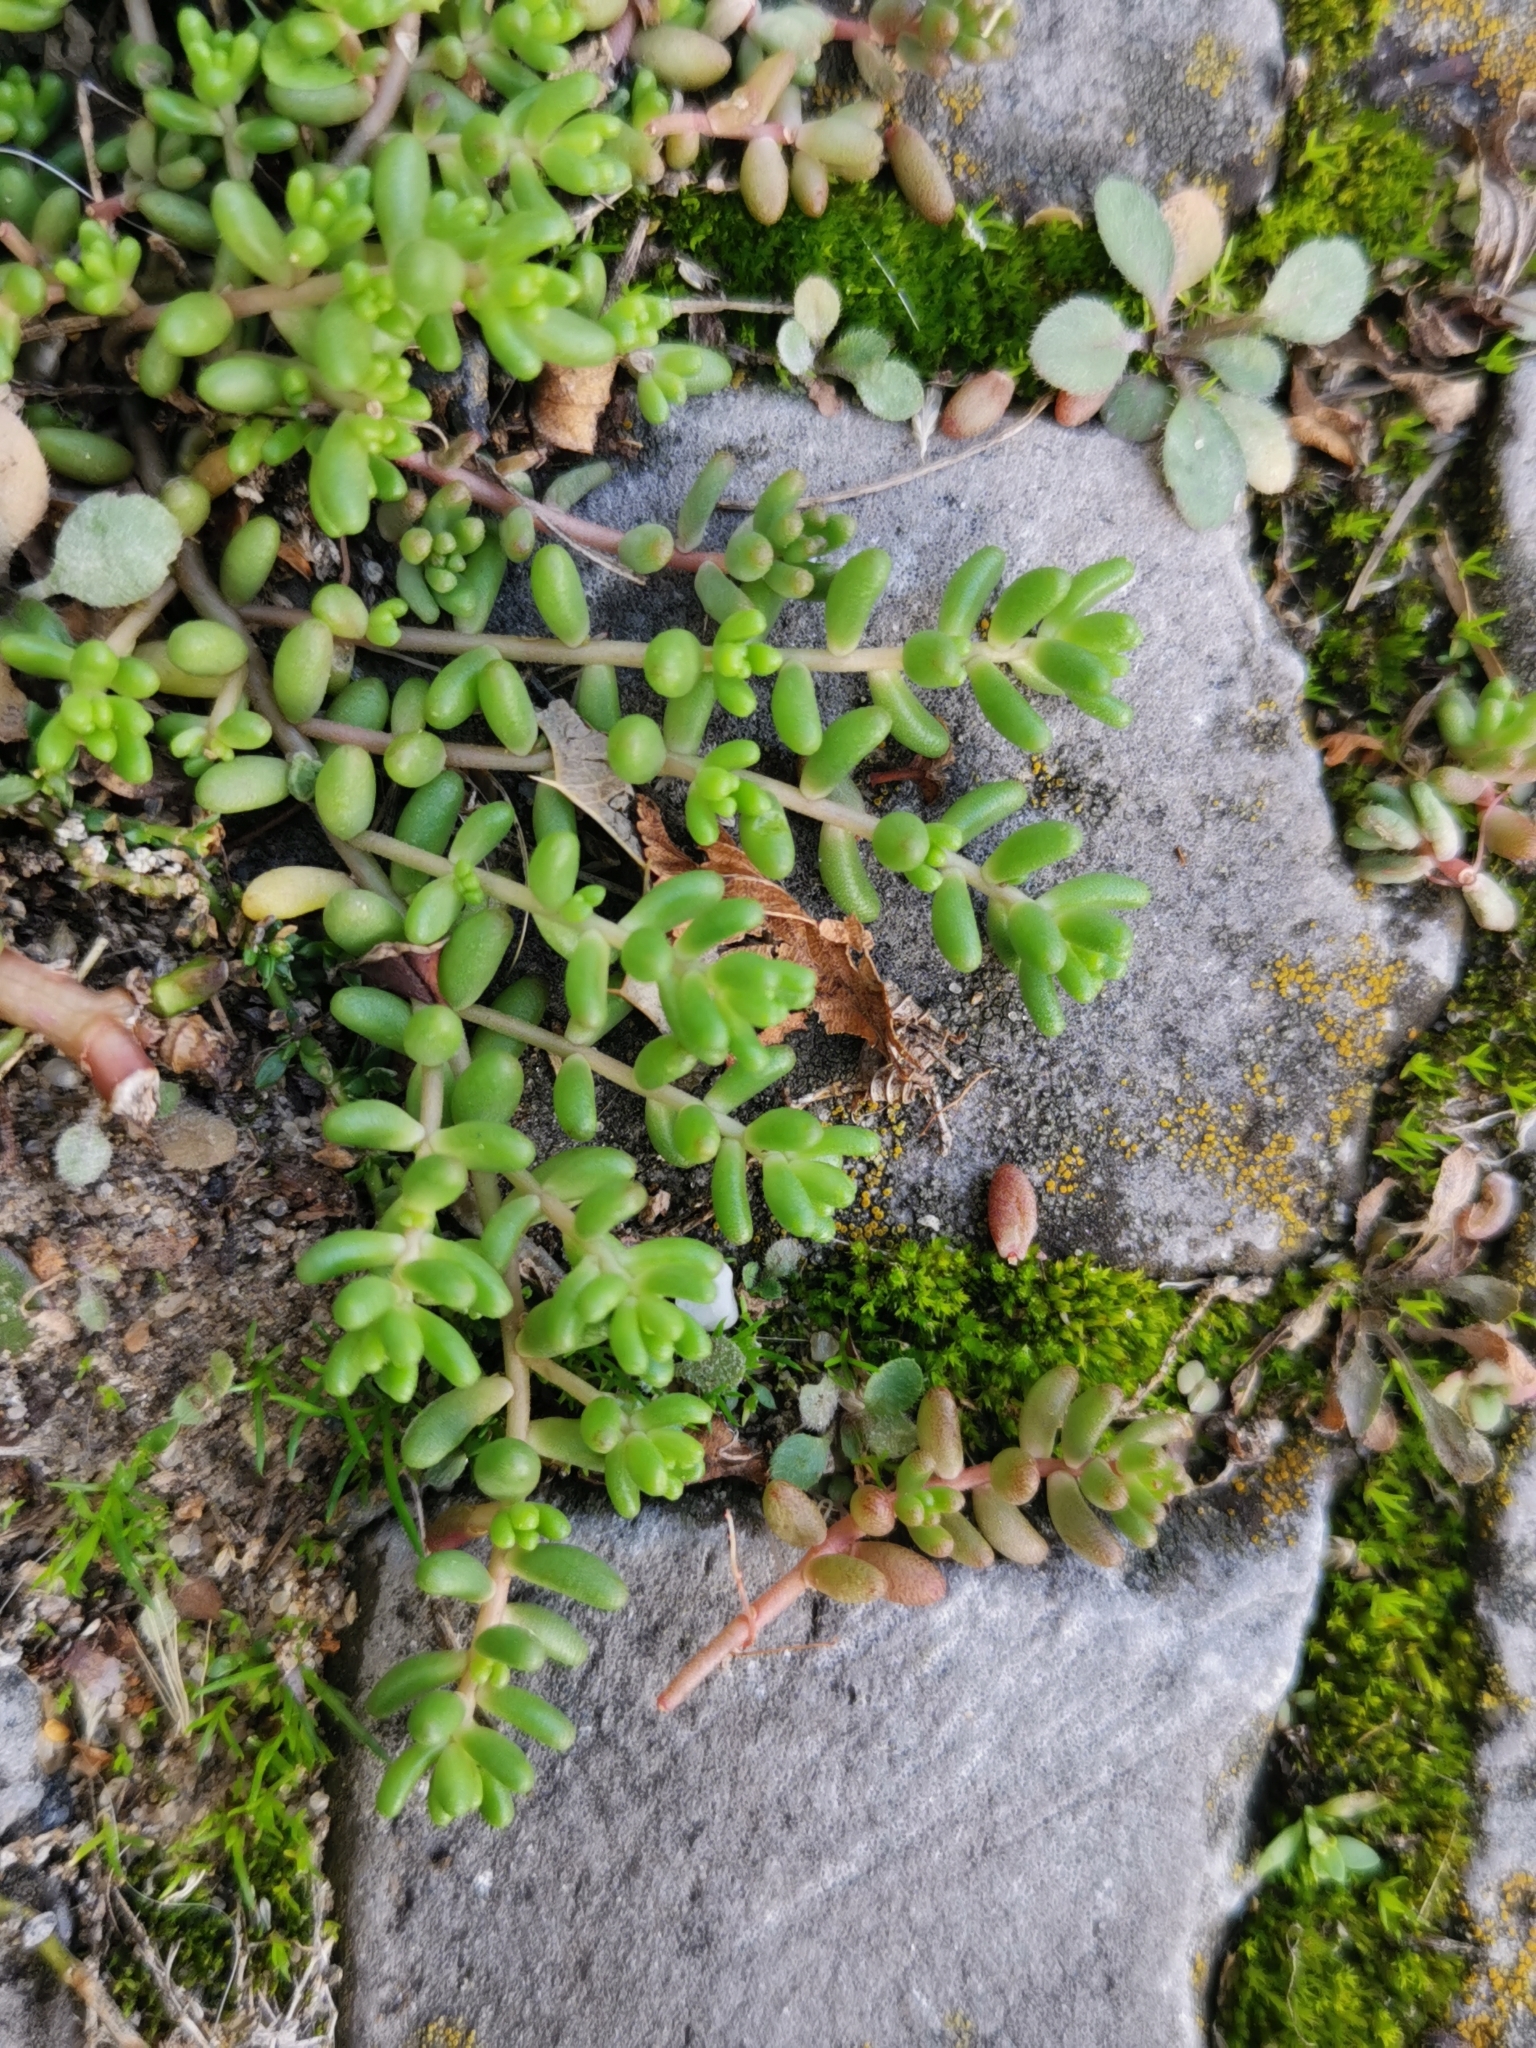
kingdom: Plantae
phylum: Tracheophyta
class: Magnoliopsida
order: Saxifragales
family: Crassulaceae
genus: Sedum
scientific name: Sedum album
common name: White stonecrop
